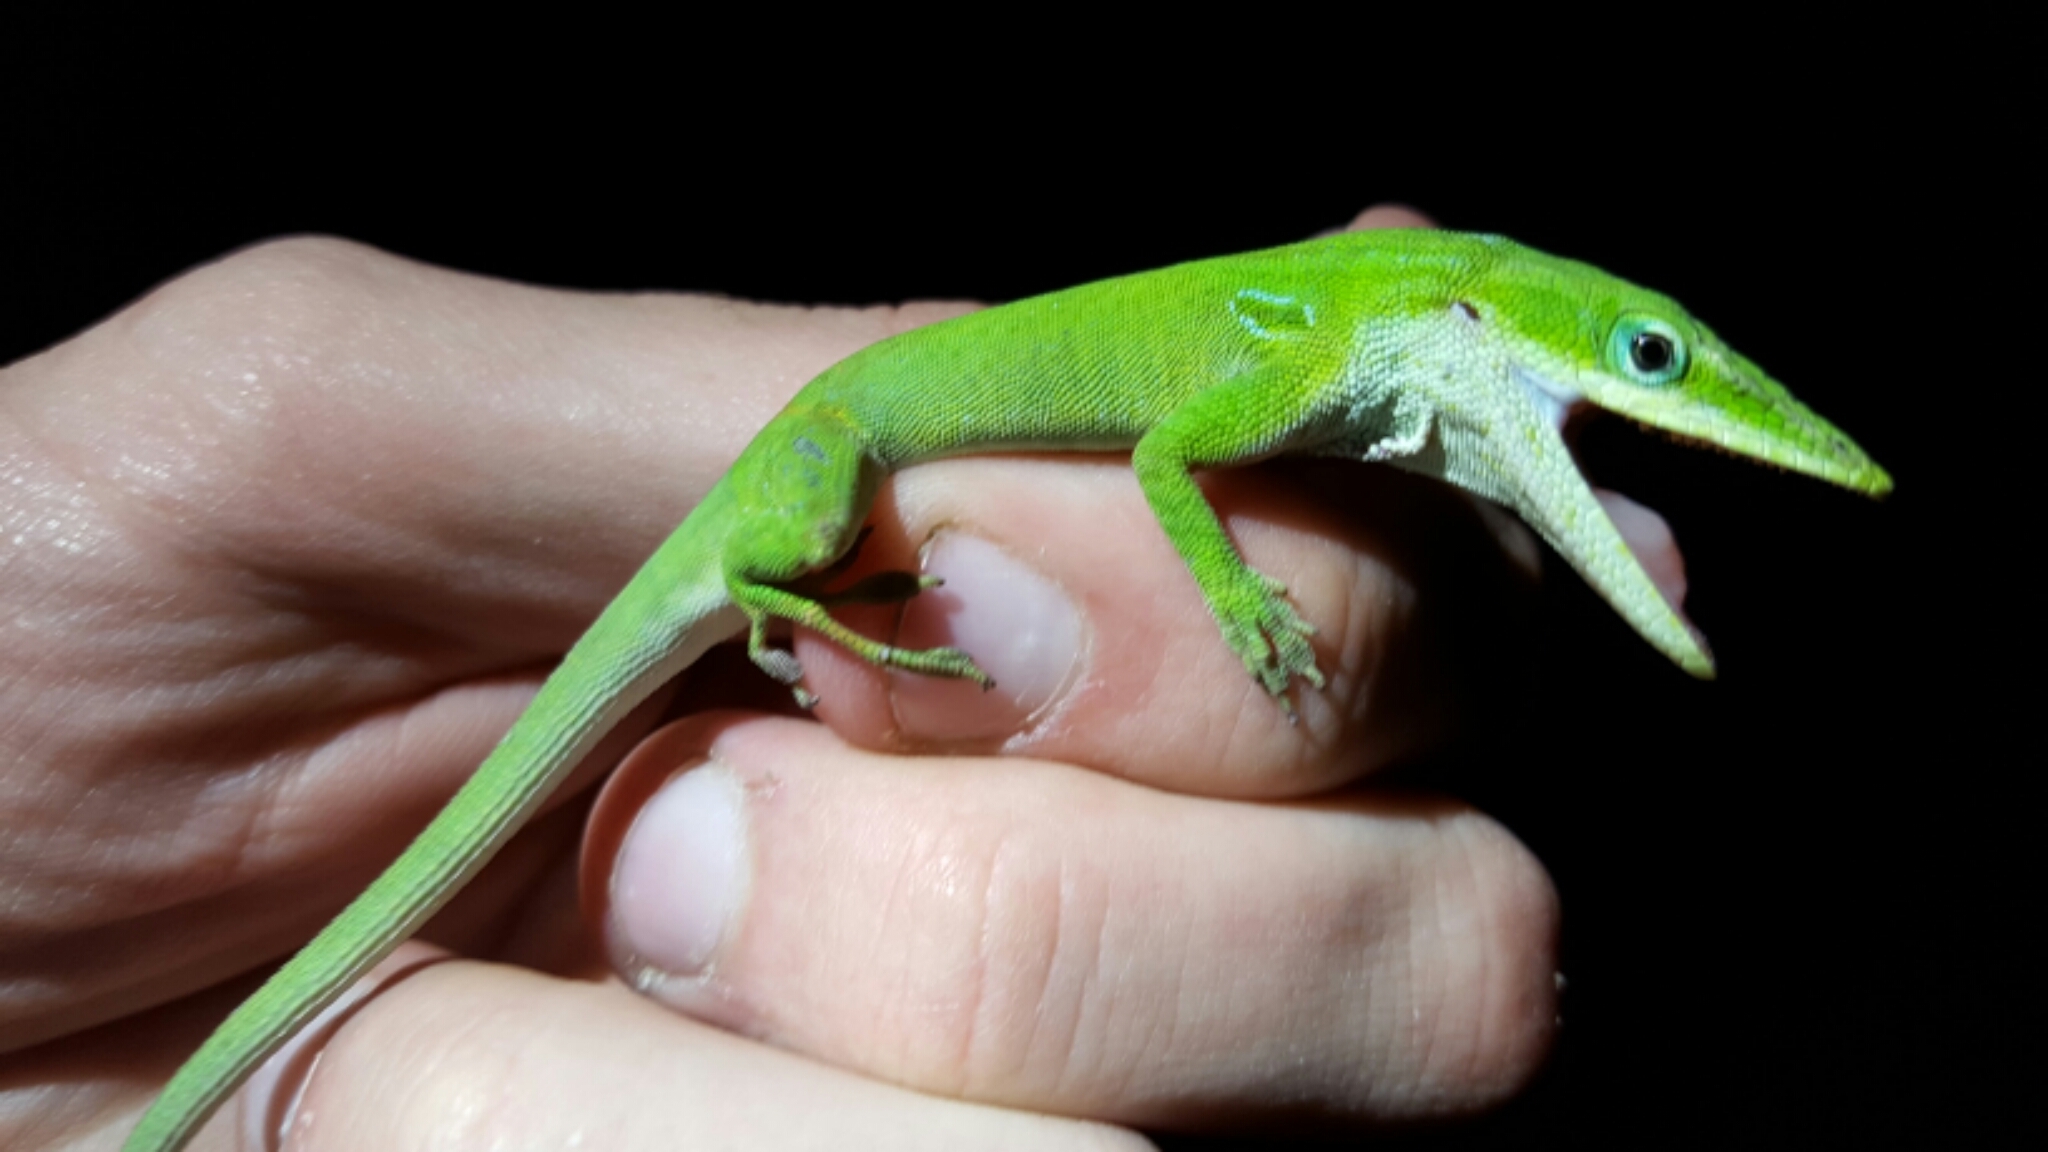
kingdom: Animalia
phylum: Chordata
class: Squamata
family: Dactyloidae
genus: Anolis
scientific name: Anolis carolinensis
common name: Green anole
